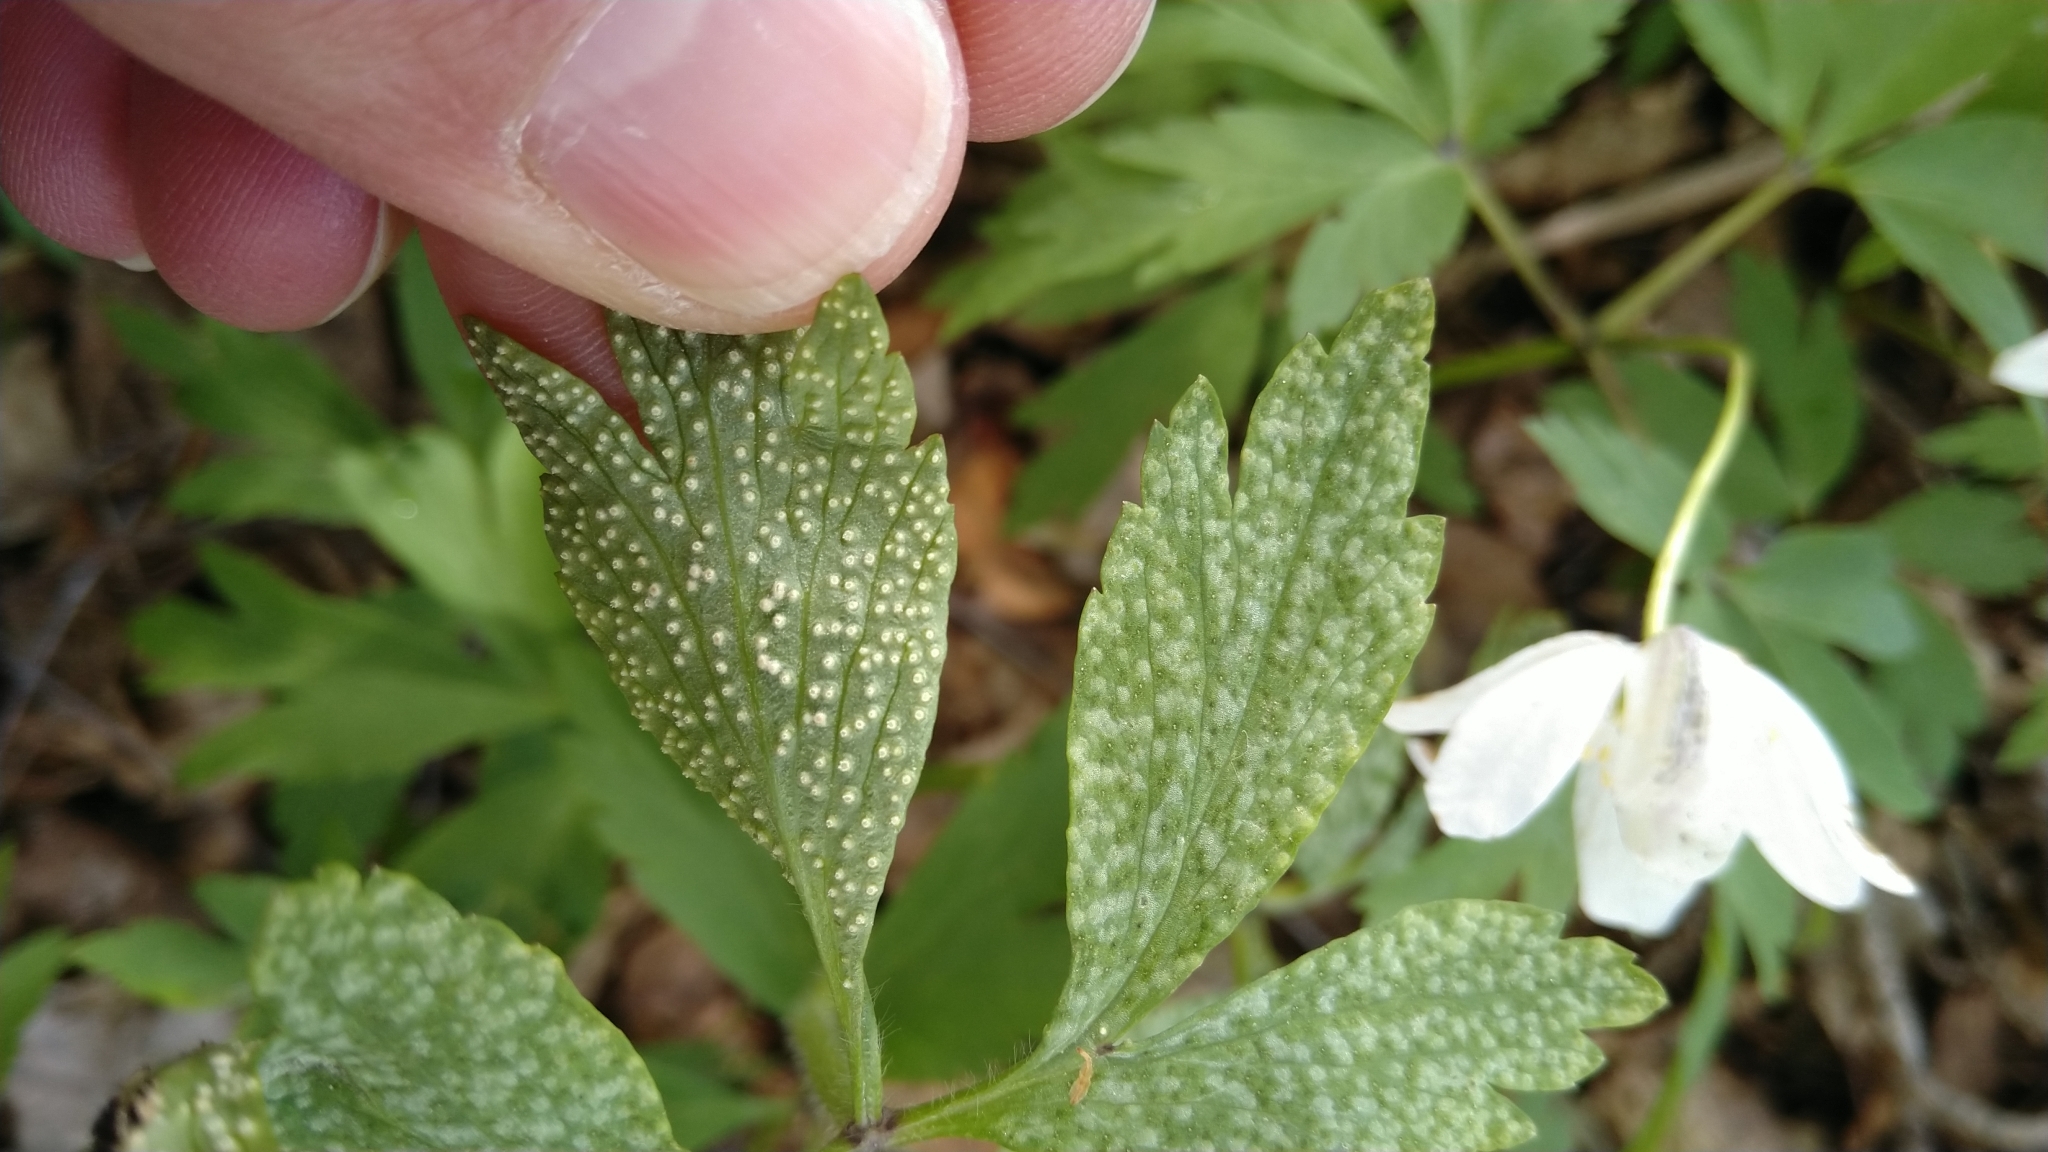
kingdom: Fungi
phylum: Basidiomycota
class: Pucciniomycetes
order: Pucciniales
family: Ochropsoraceae
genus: Ochropsora
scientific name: Ochropsora ariae
